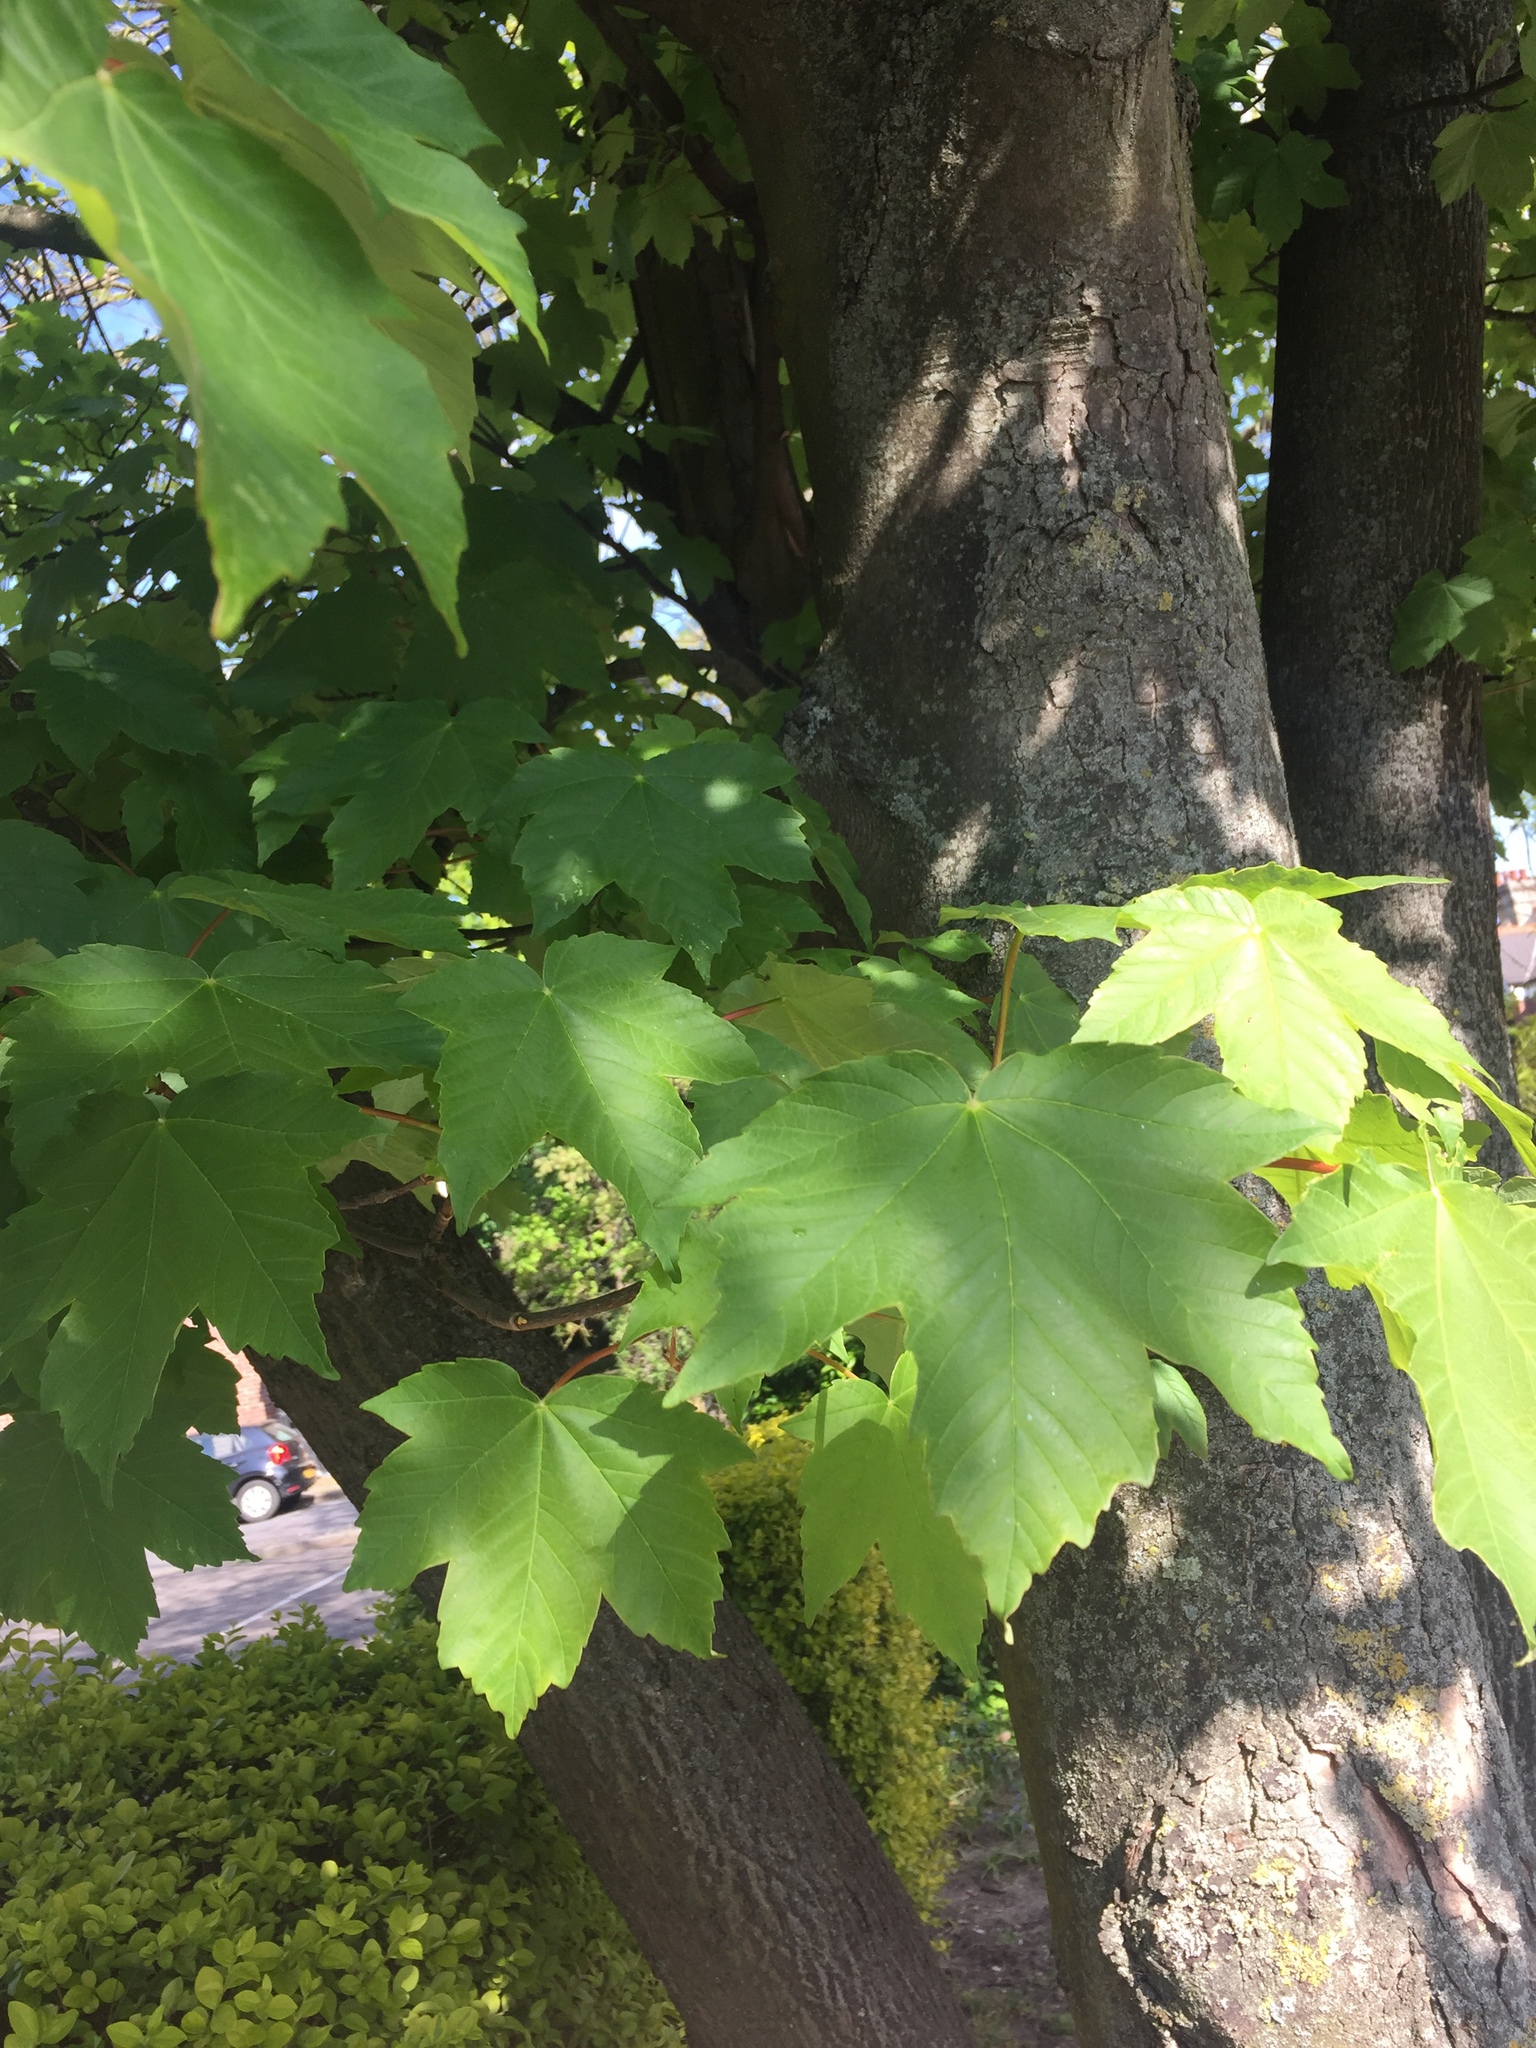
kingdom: Plantae
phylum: Tracheophyta
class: Magnoliopsida
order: Sapindales
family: Sapindaceae
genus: Acer
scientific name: Acer pseudoplatanus
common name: Sycamore
